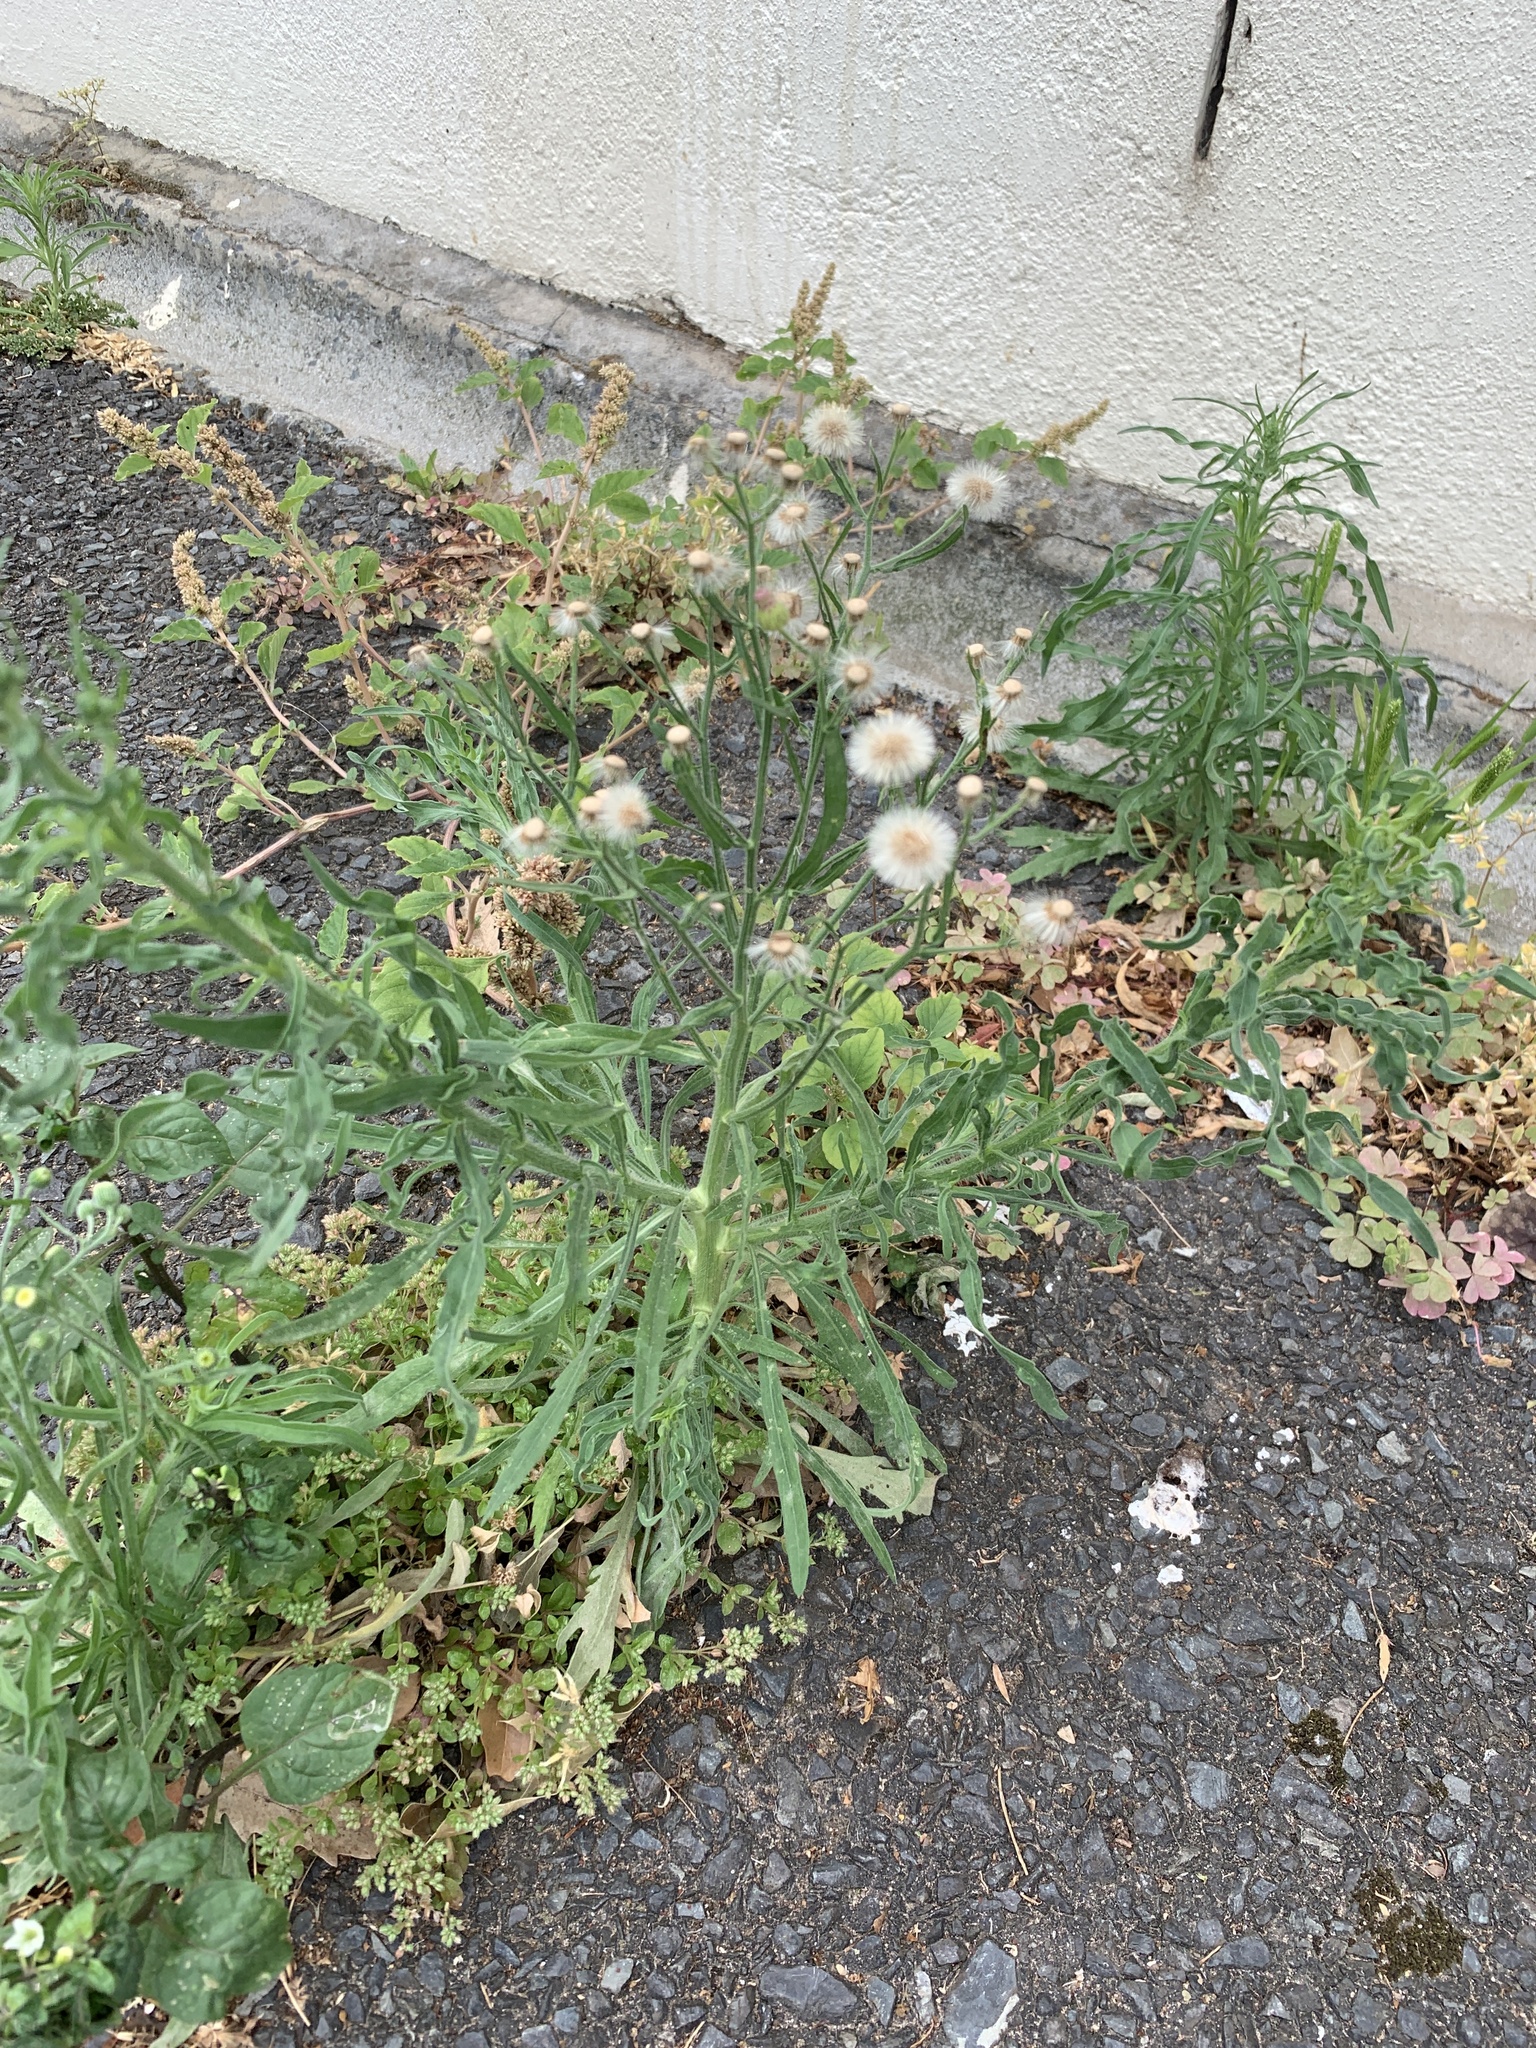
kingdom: Plantae
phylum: Tracheophyta
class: Magnoliopsida
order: Asterales
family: Asteraceae
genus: Erigeron
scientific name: Erigeron bonariensis
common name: Argentine fleabane
